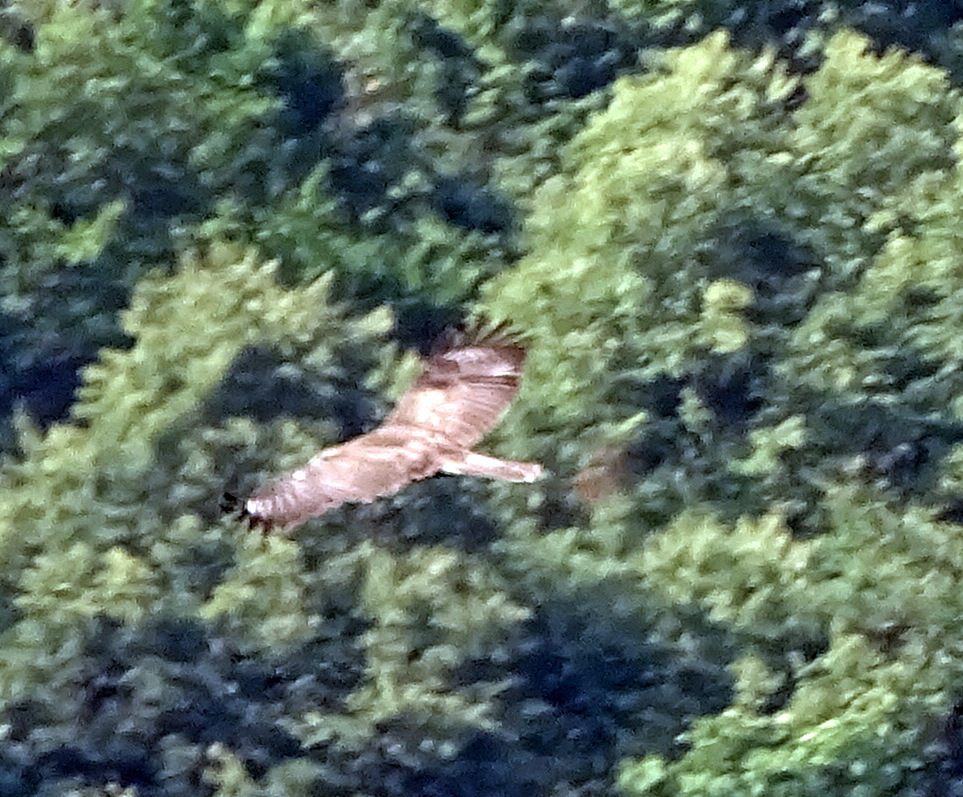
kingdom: Animalia
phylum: Chordata
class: Aves
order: Accipitriformes
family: Accipitridae
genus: Buteo
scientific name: Buteo buteo
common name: Common buzzard
